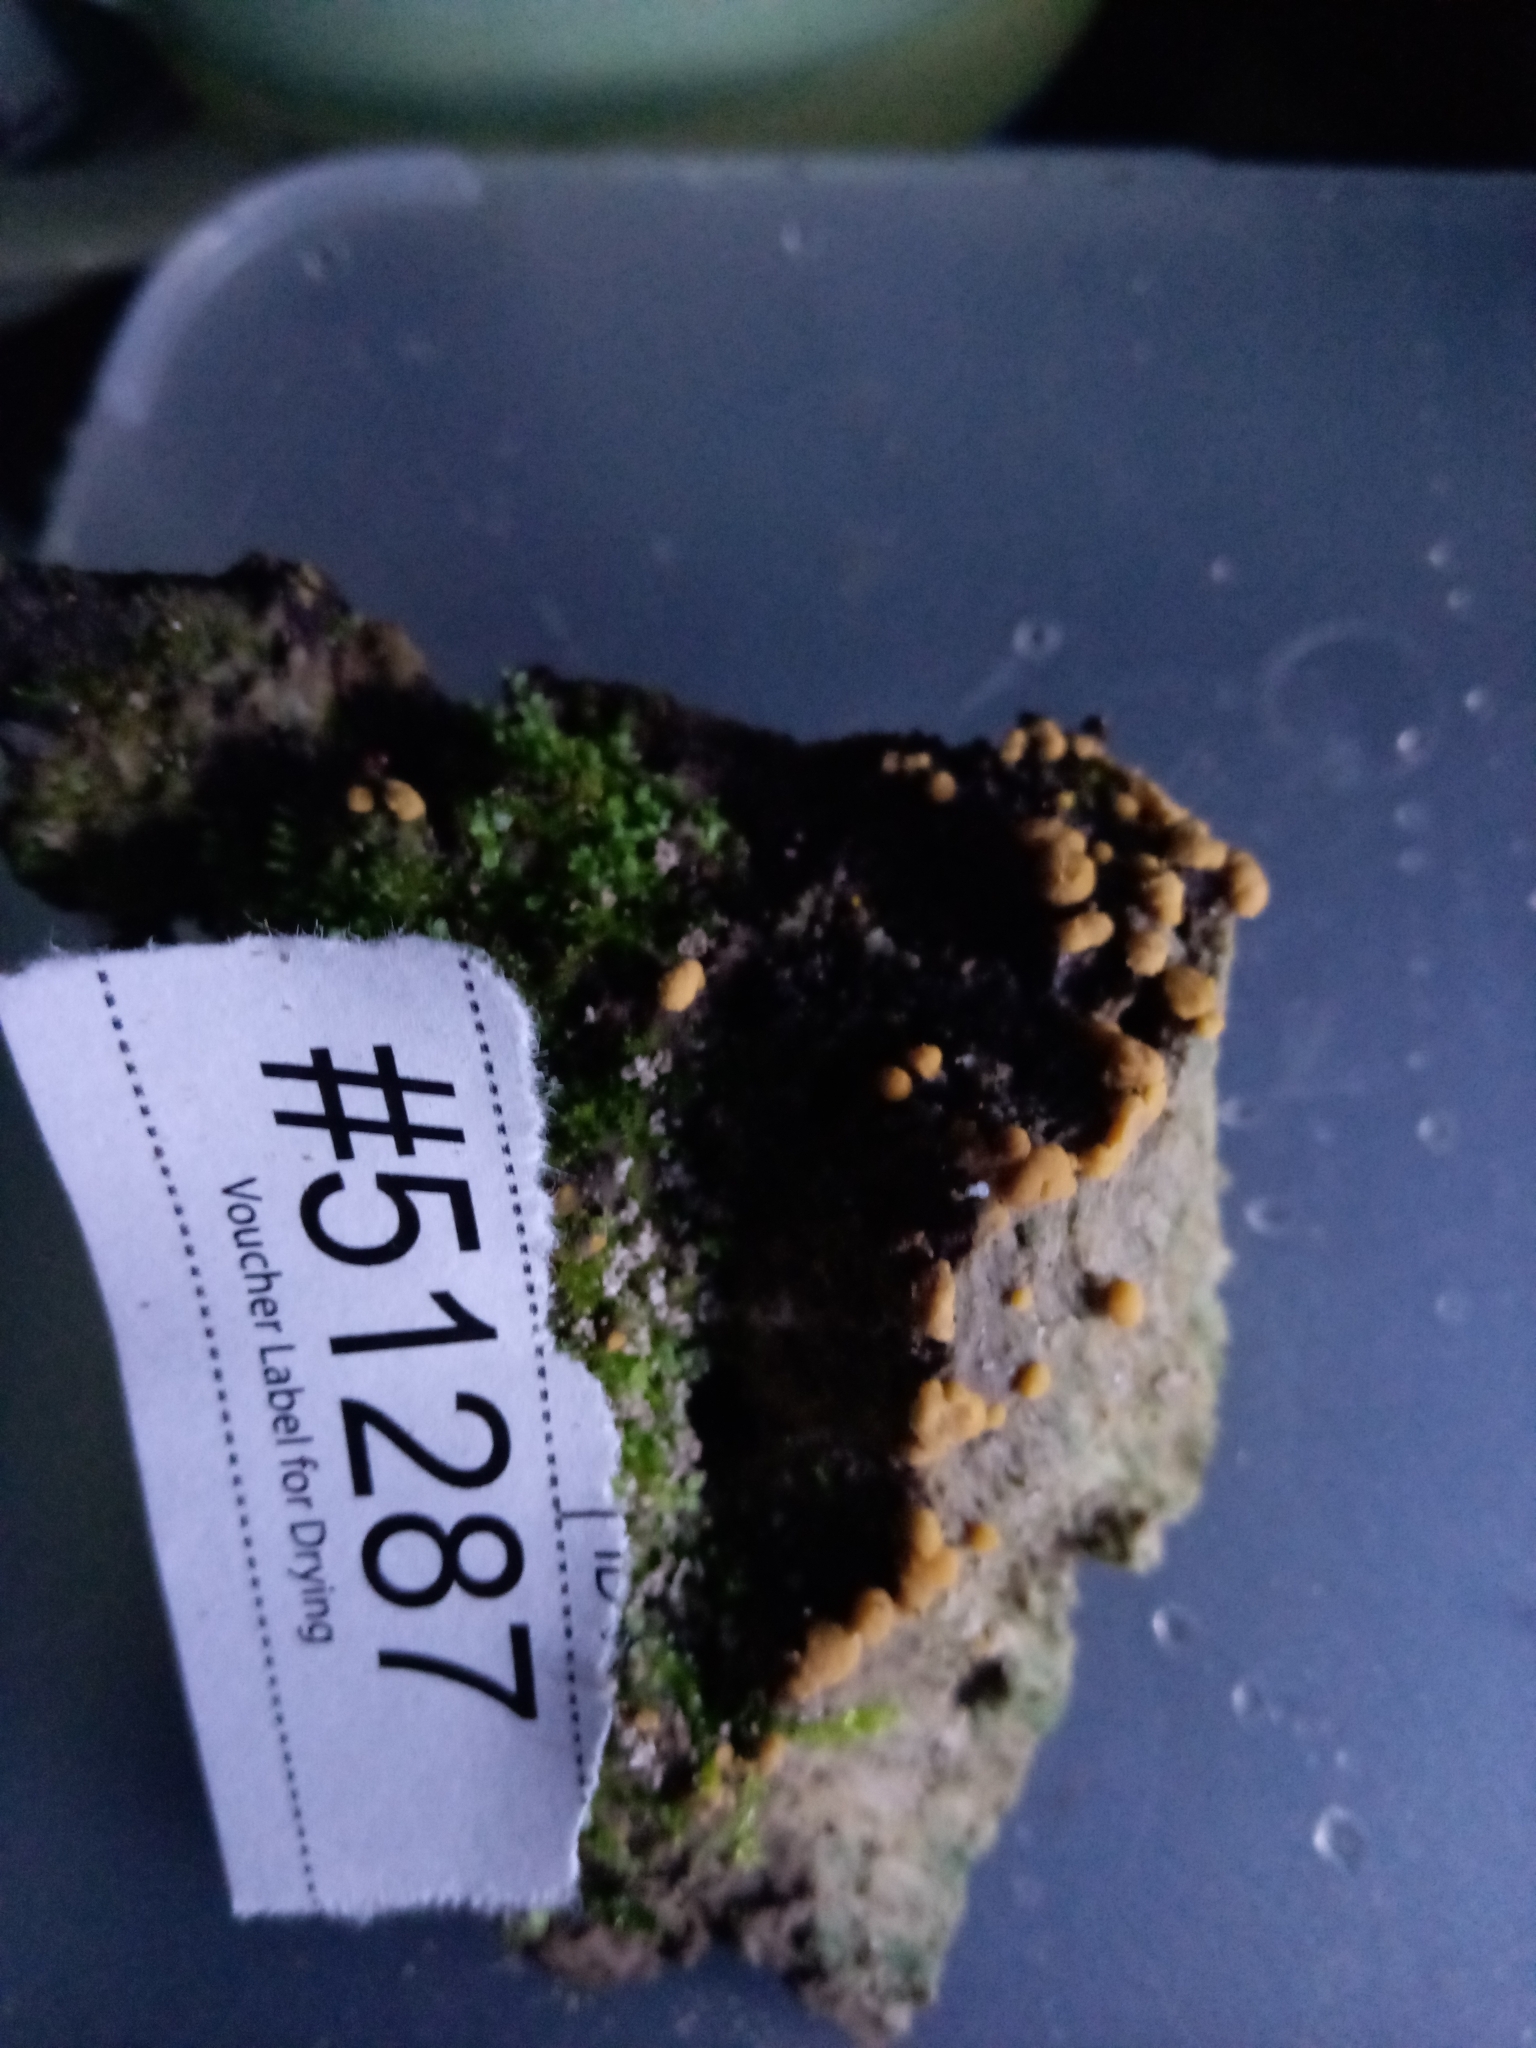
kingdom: Fungi
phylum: Ascomycota
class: Sordariomycetes
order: Hypocreales
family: Hypocreaceae
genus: Trichoderma
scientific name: Trichoderma atroviride
